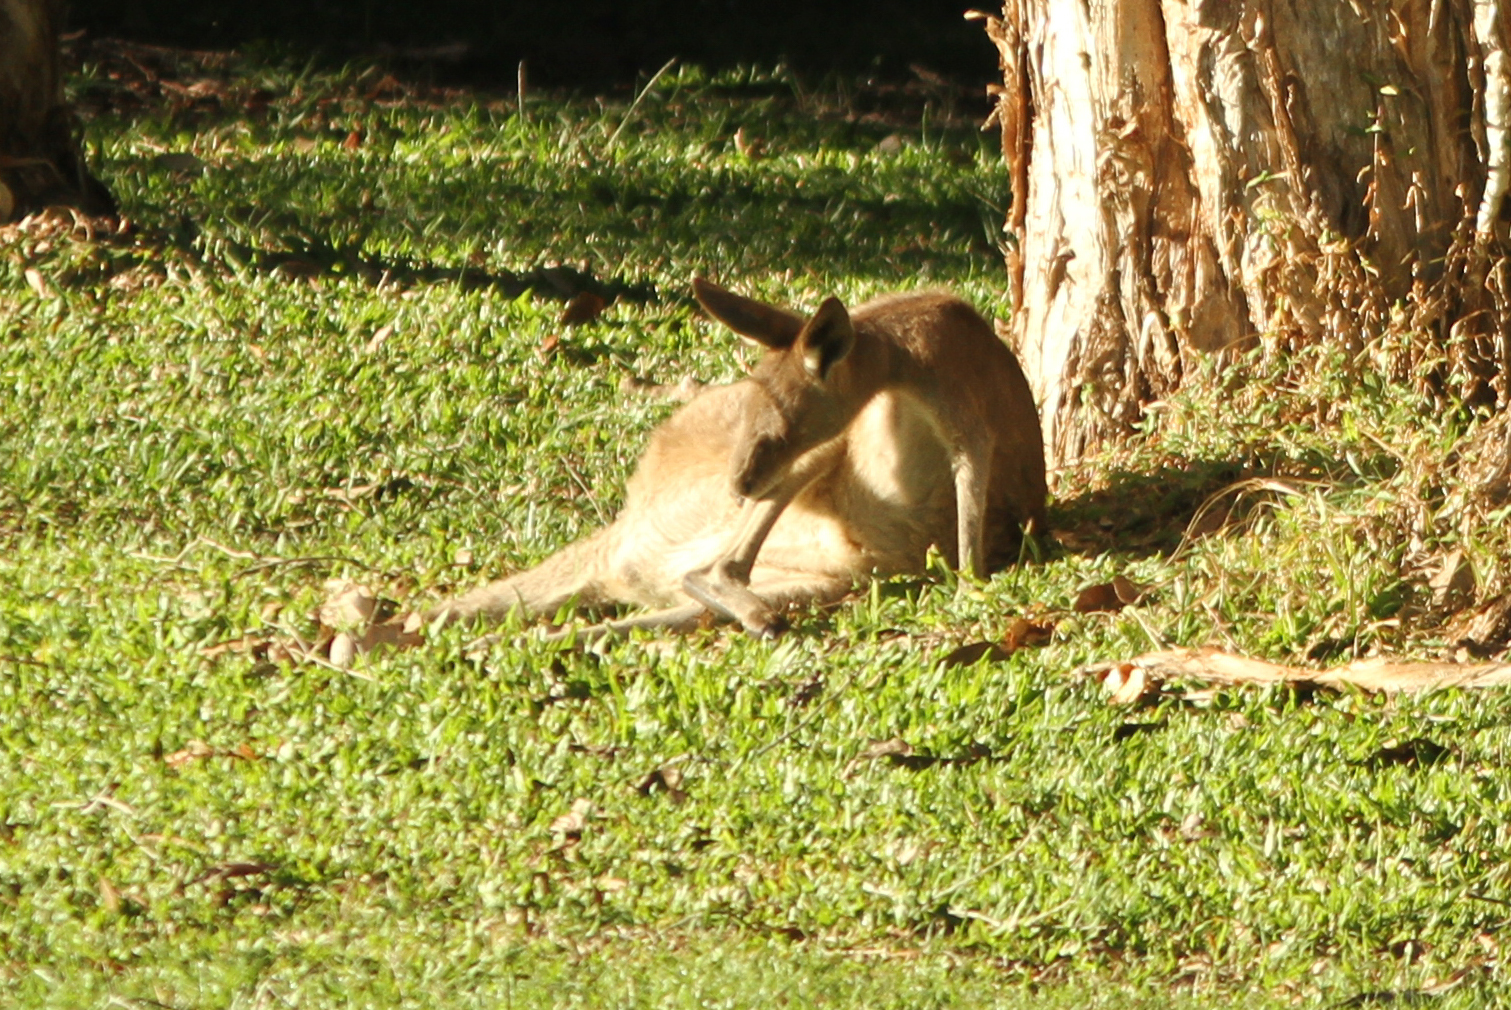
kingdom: Animalia
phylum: Chordata
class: Mammalia
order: Diprotodontia
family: Macropodidae
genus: Macropus
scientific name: Macropus giganteus
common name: Eastern grey kangaroo
